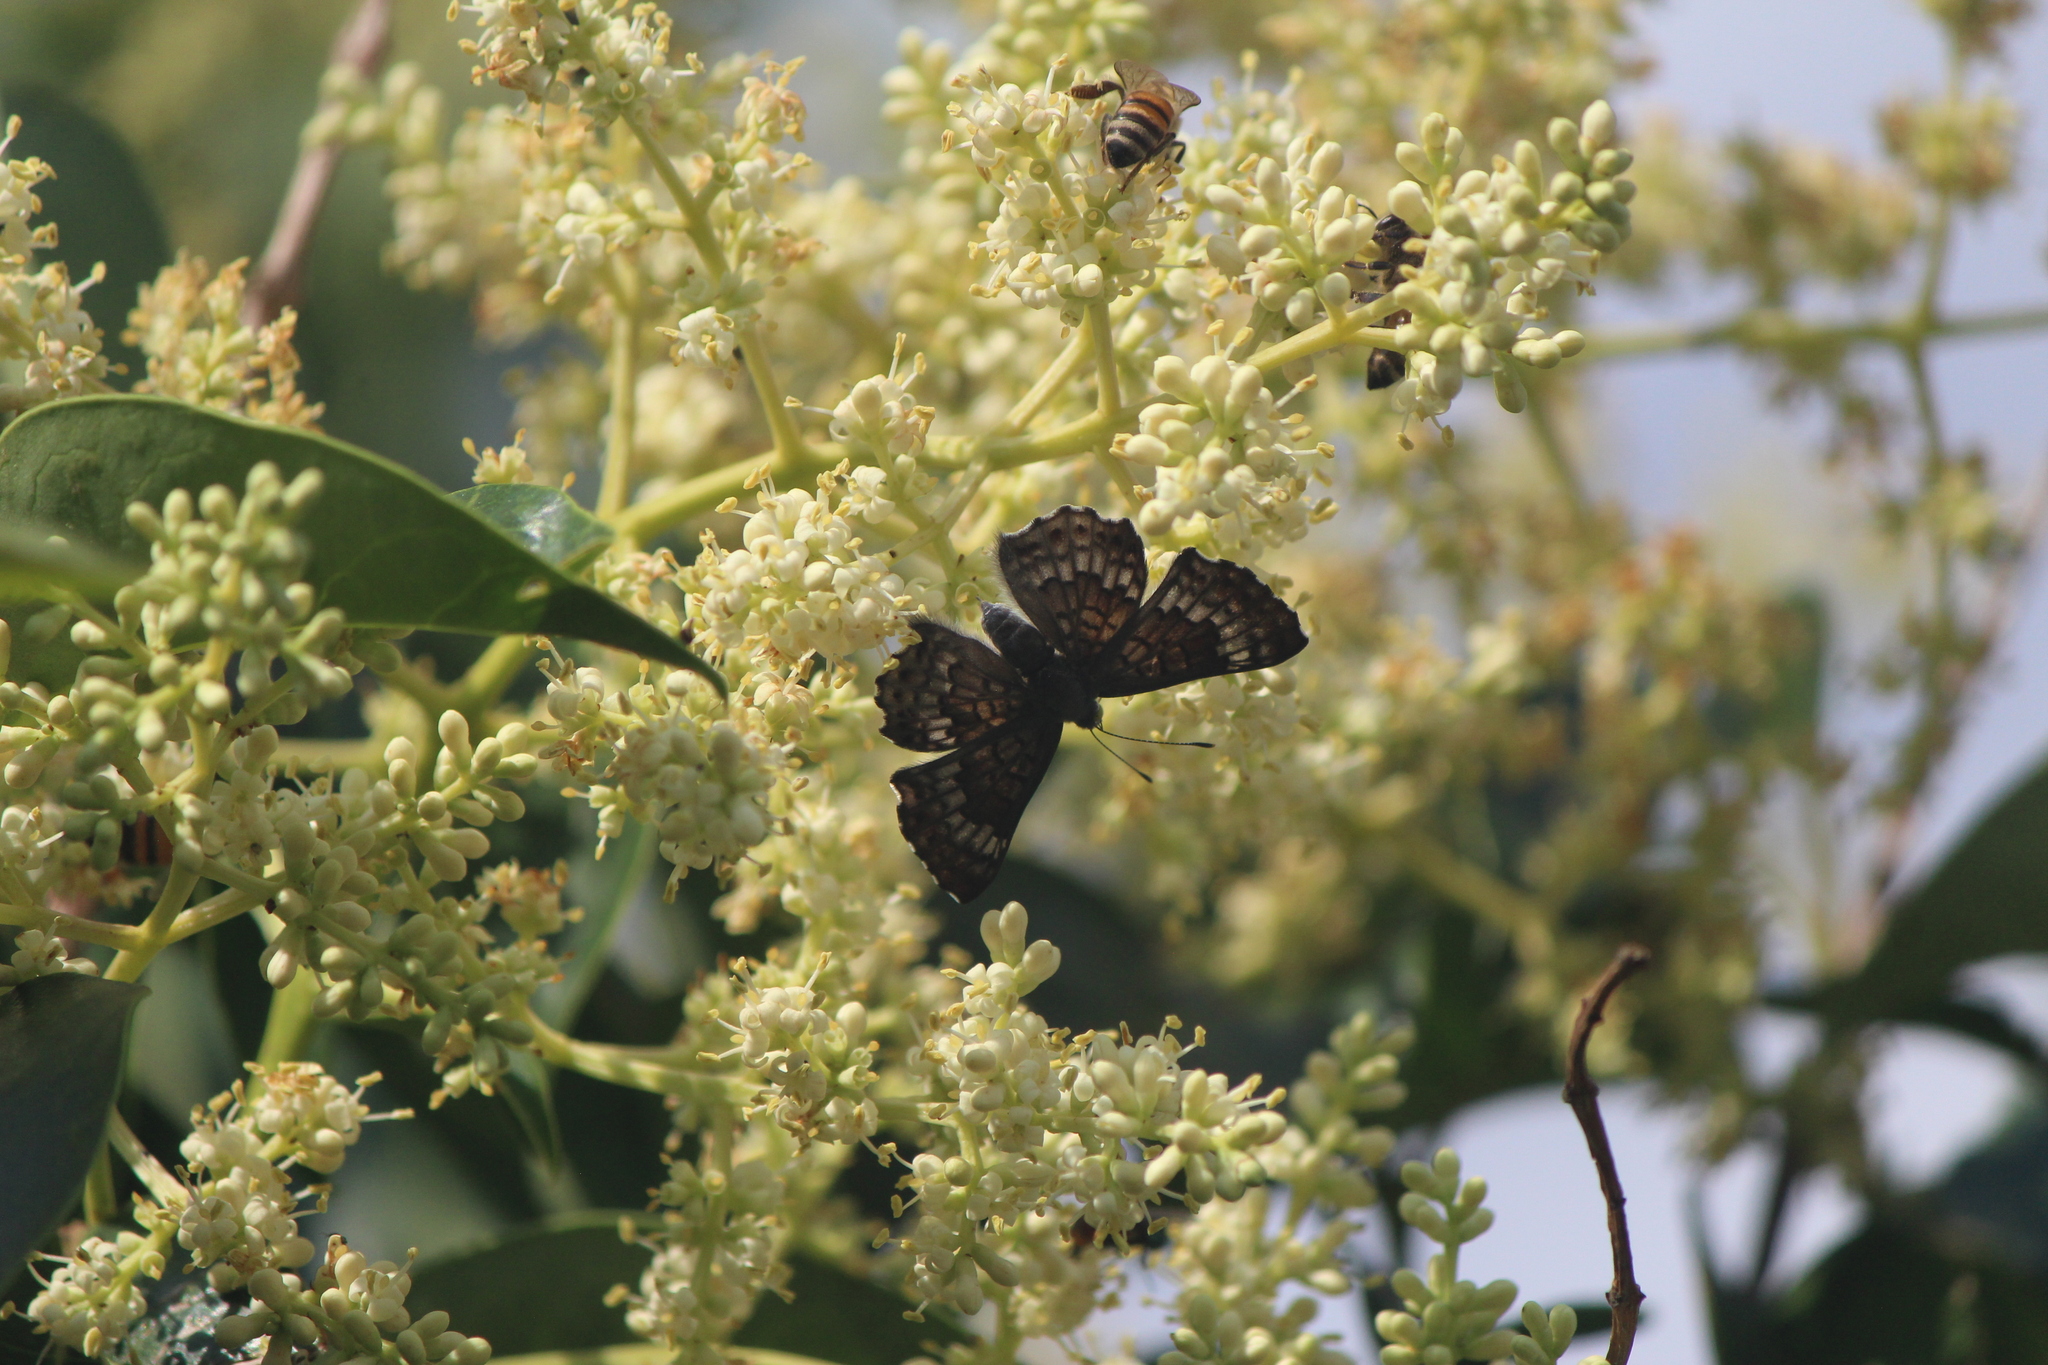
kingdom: Animalia
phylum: Arthropoda
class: Insecta
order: Lepidoptera
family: Riodinidae
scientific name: Riodinidae
